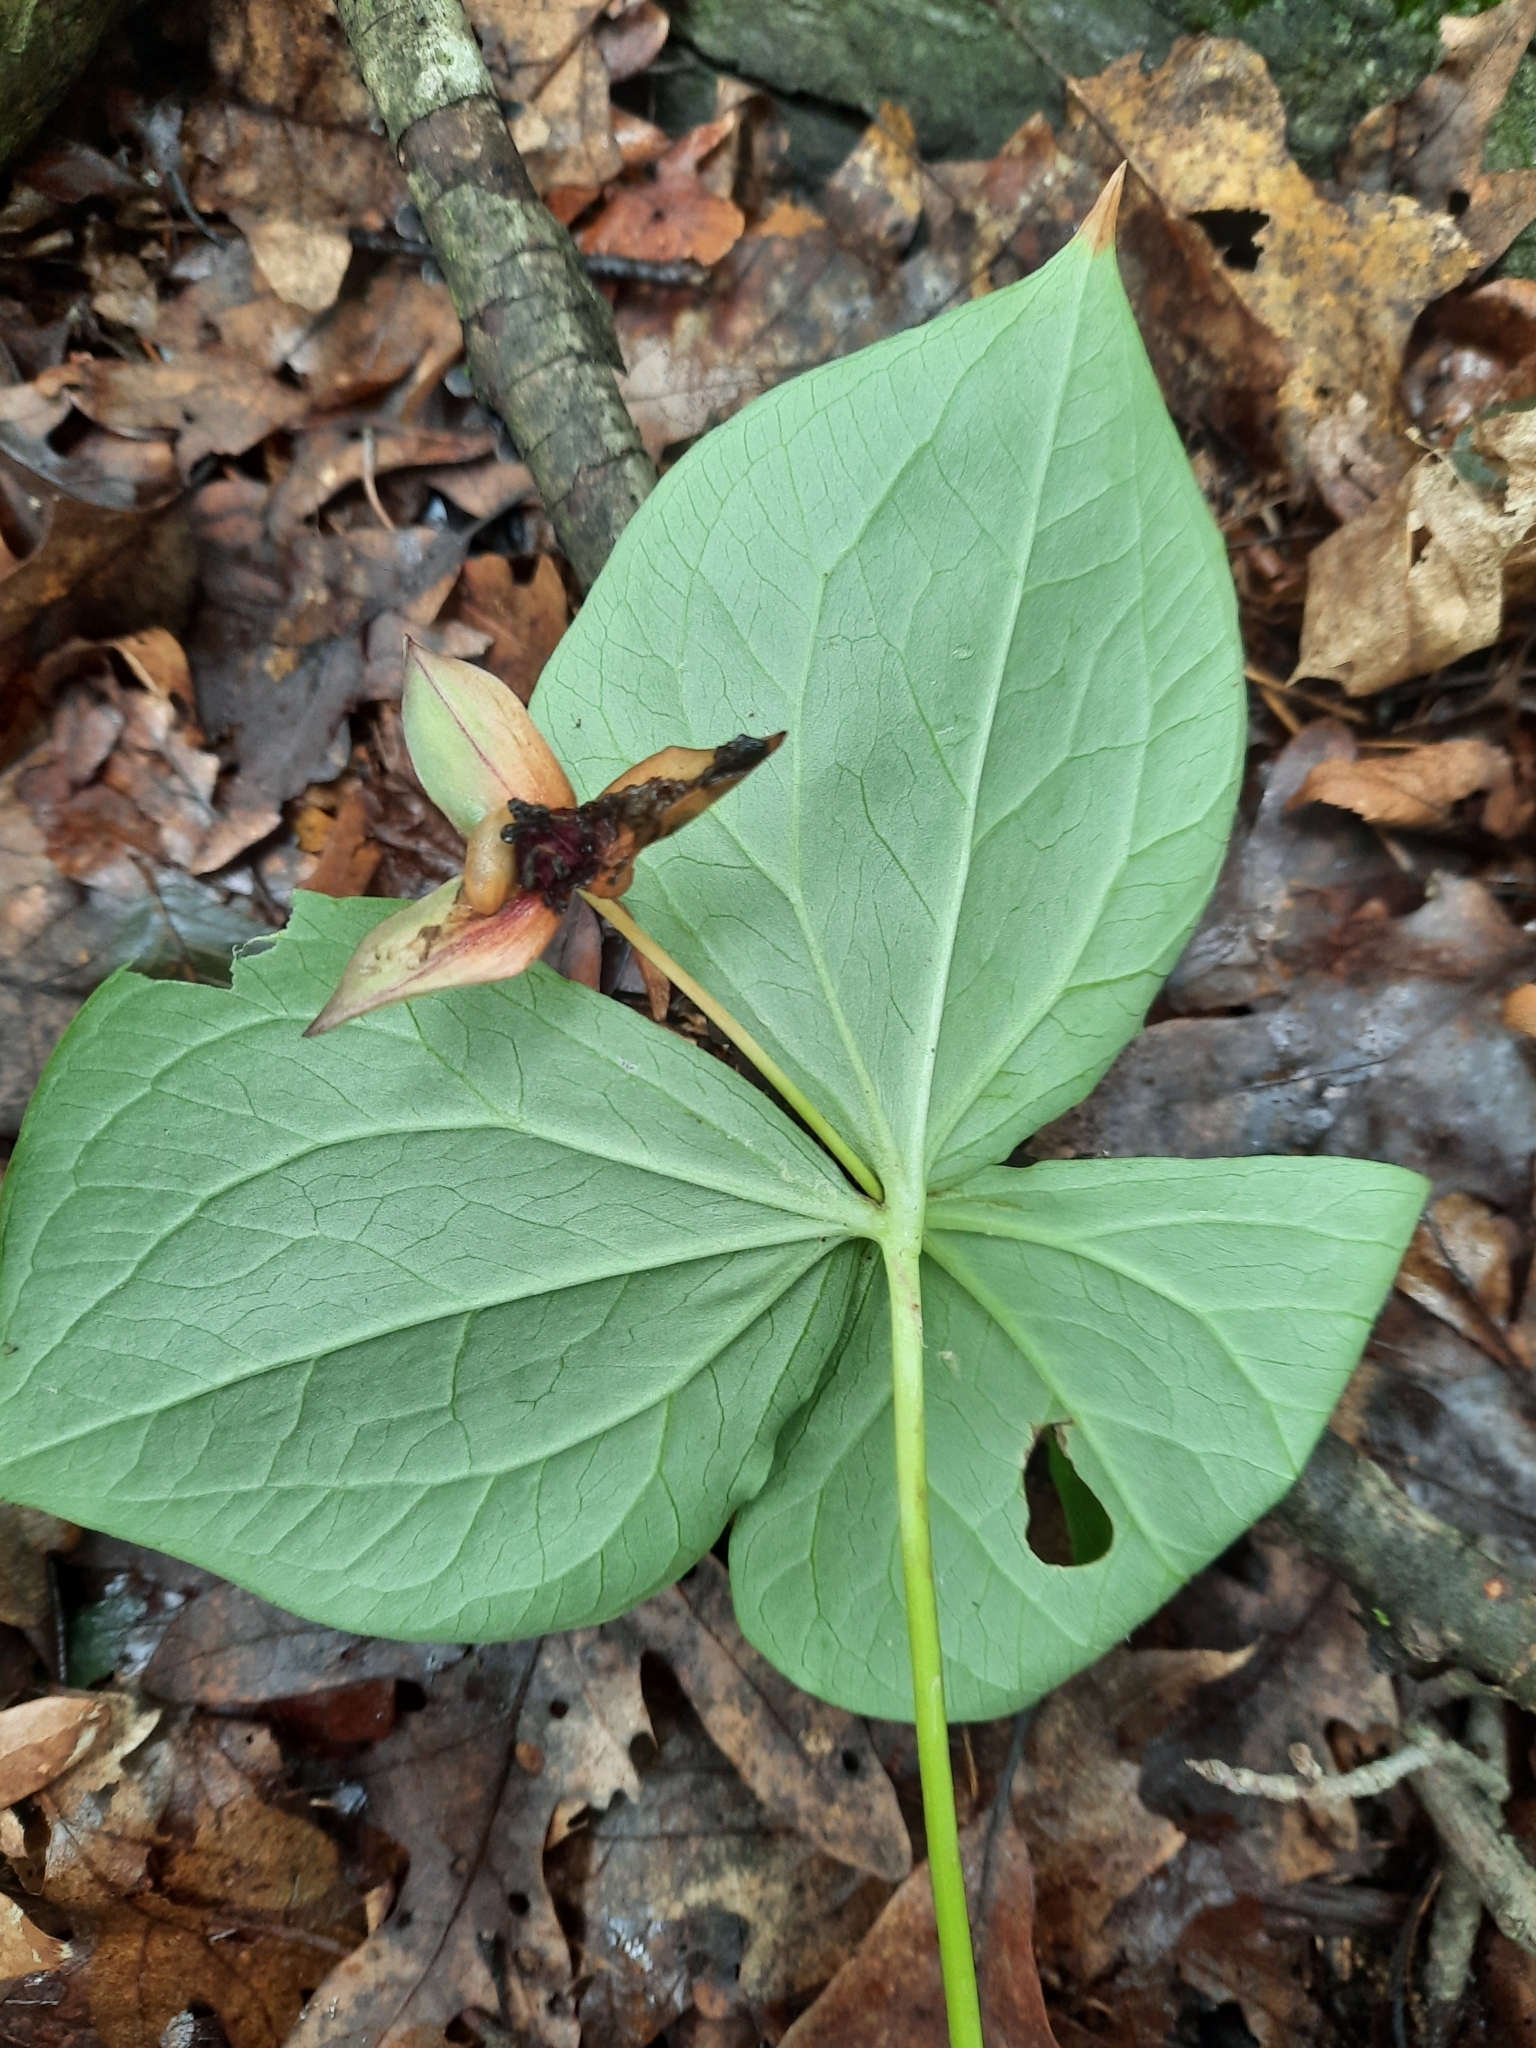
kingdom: Plantae
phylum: Tracheophyta
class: Liliopsida
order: Liliales
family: Melanthiaceae
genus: Trillium
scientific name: Trillium erectum
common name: Purple trillium
